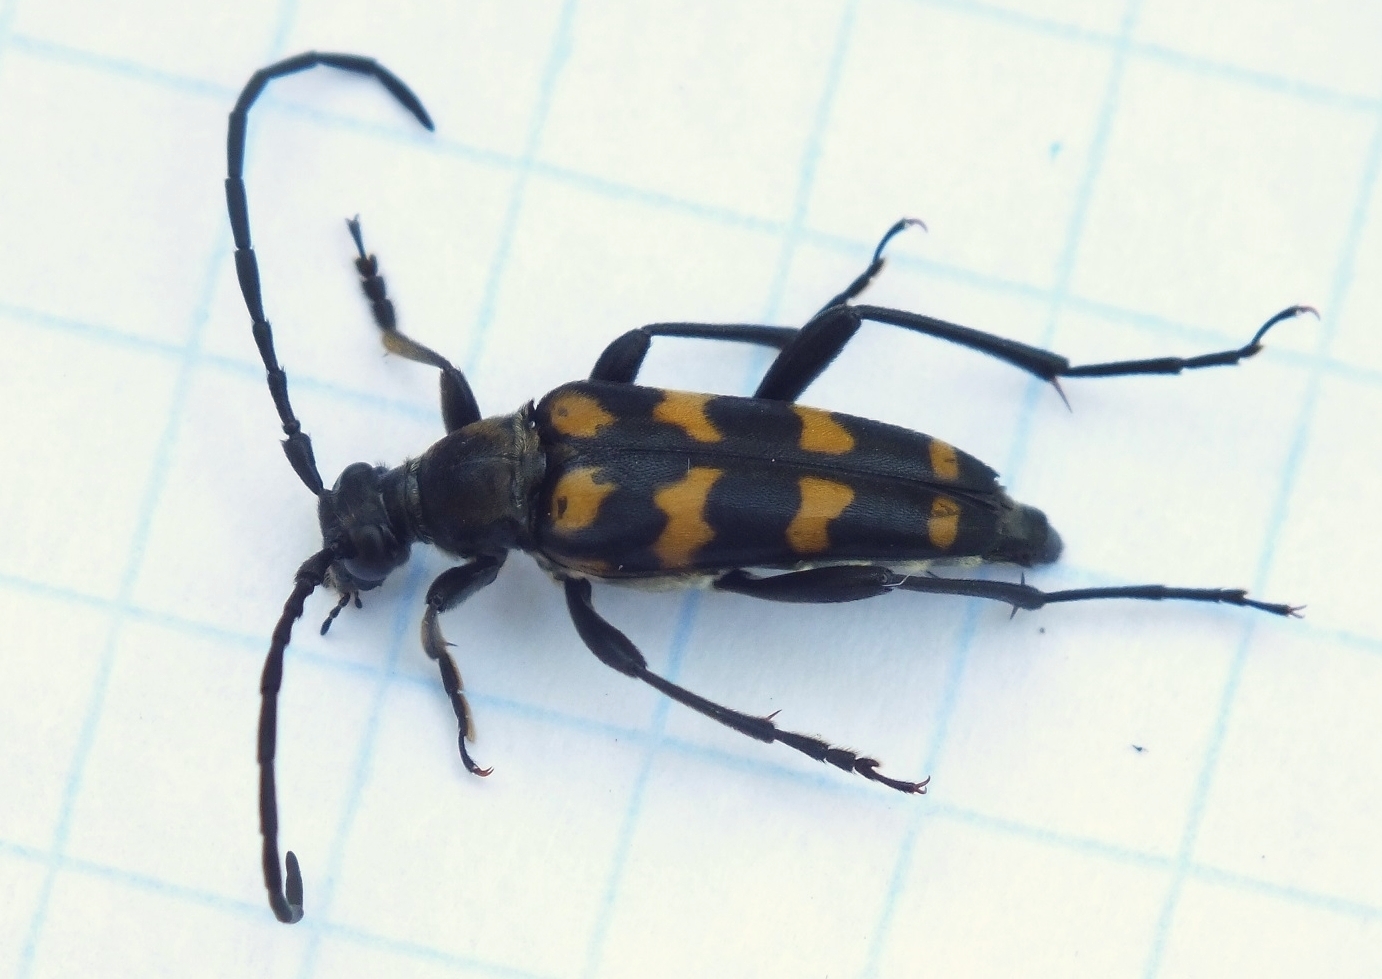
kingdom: Animalia
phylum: Arthropoda
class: Insecta
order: Coleoptera
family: Cerambycidae
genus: Leptura
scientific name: Leptura quadrifasciata
